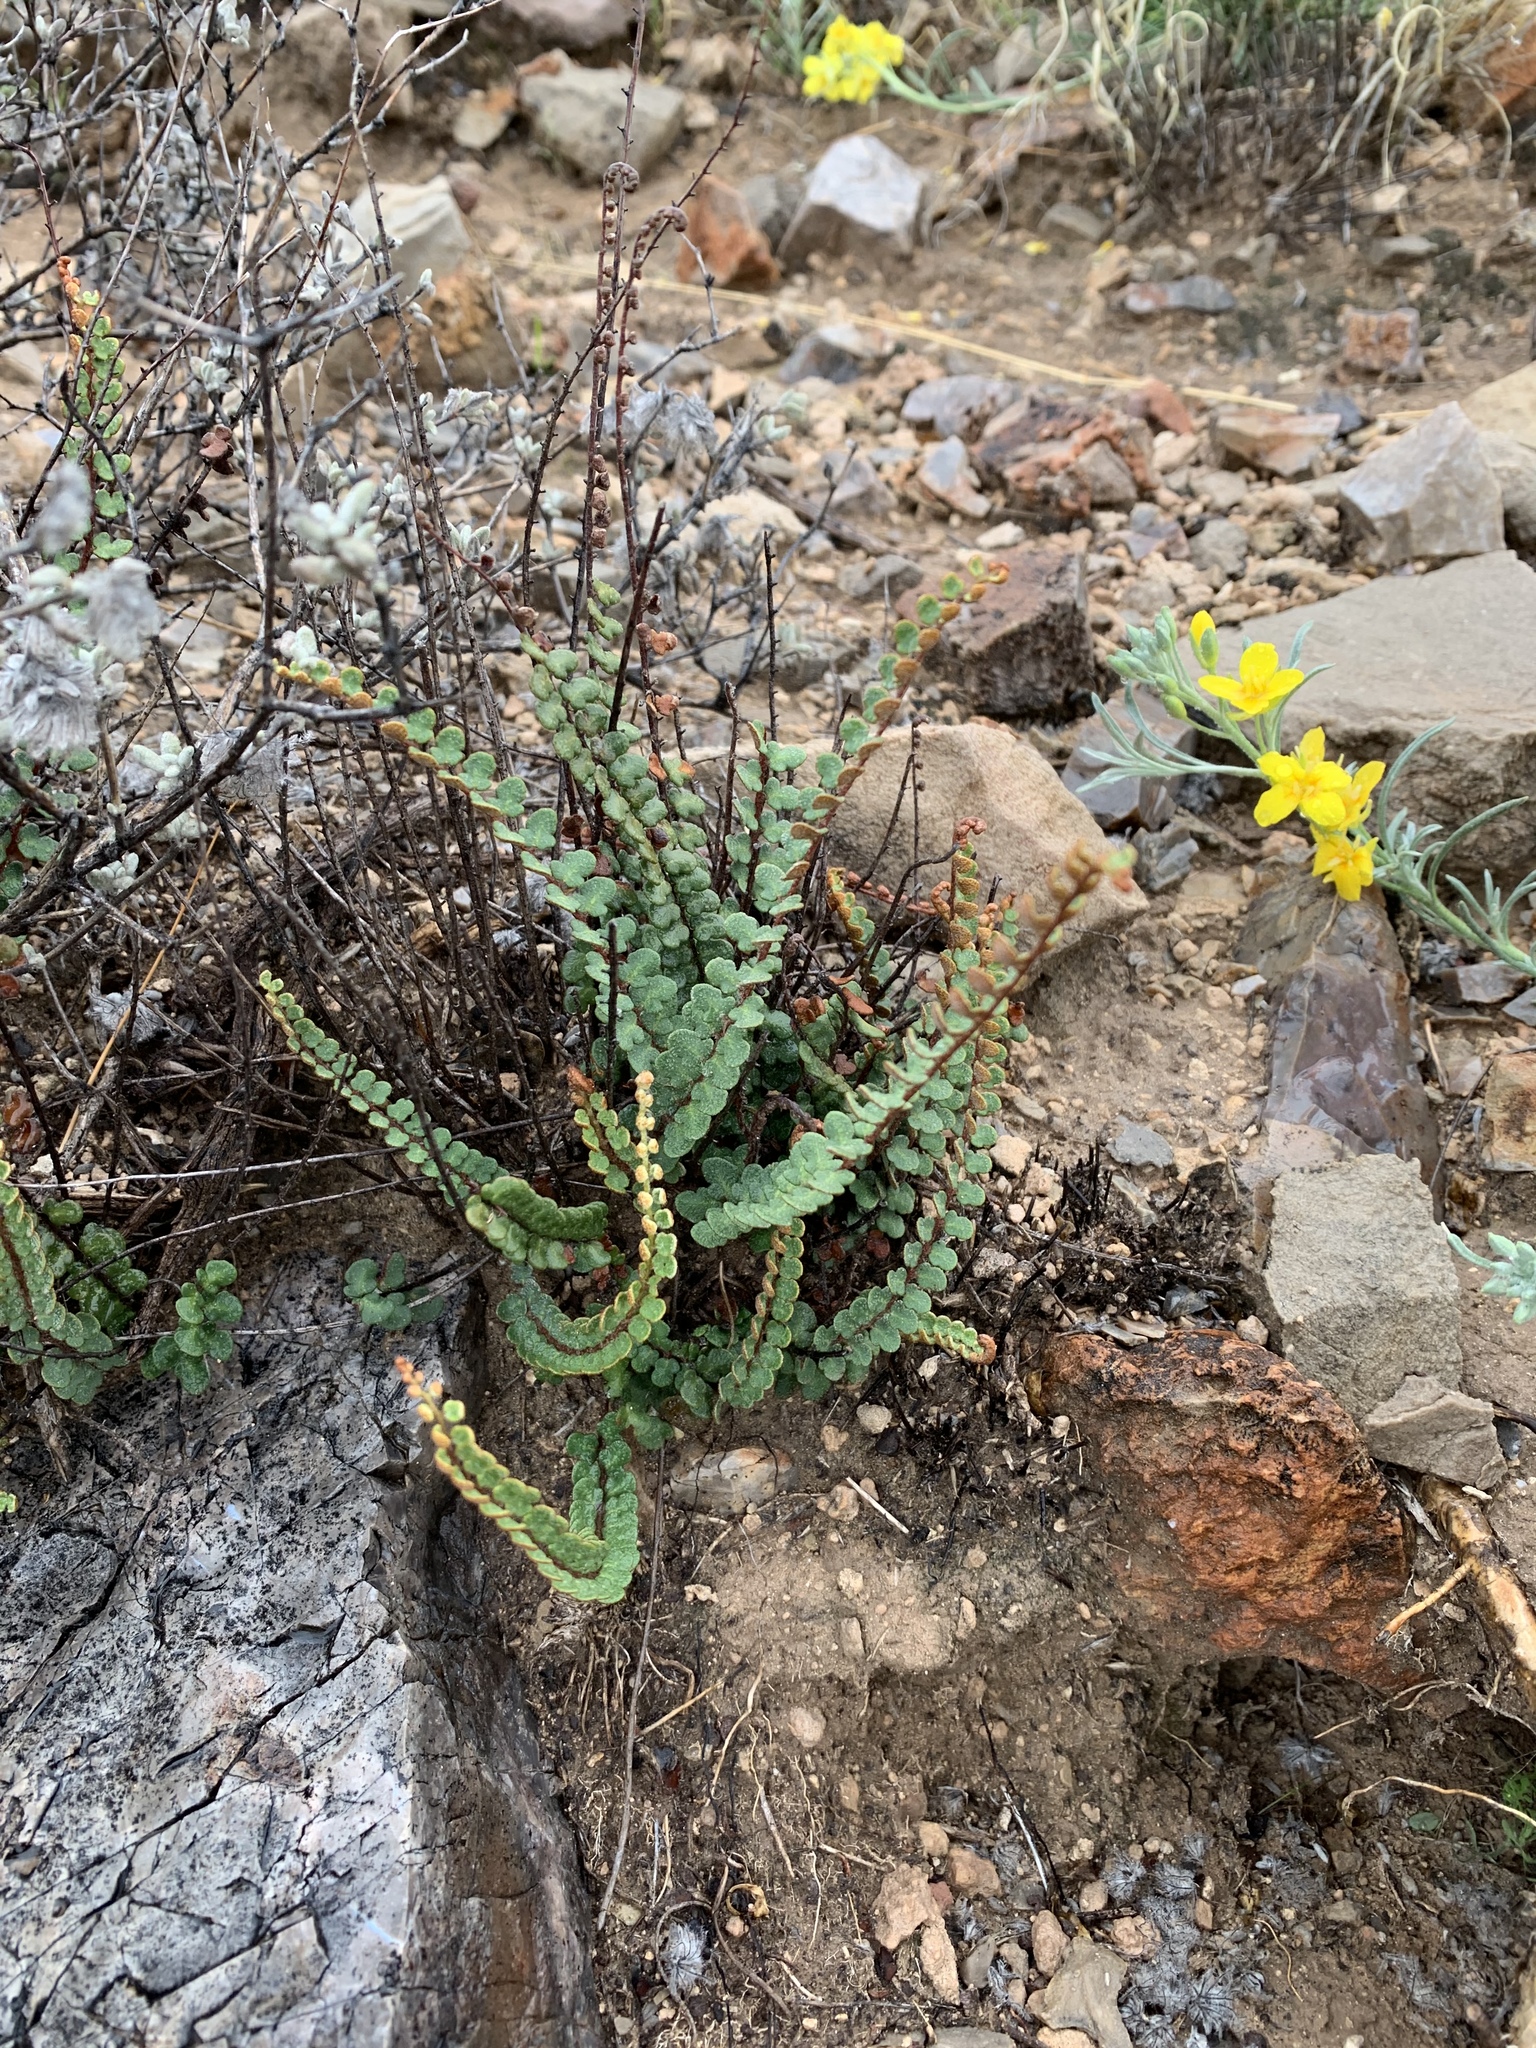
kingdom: Plantae
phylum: Tracheophyta
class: Polypodiopsida
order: Polypodiales
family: Pteridaceae
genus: Astrolepis
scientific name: Astrolepis cochisensis
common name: Scaly cloak fern
